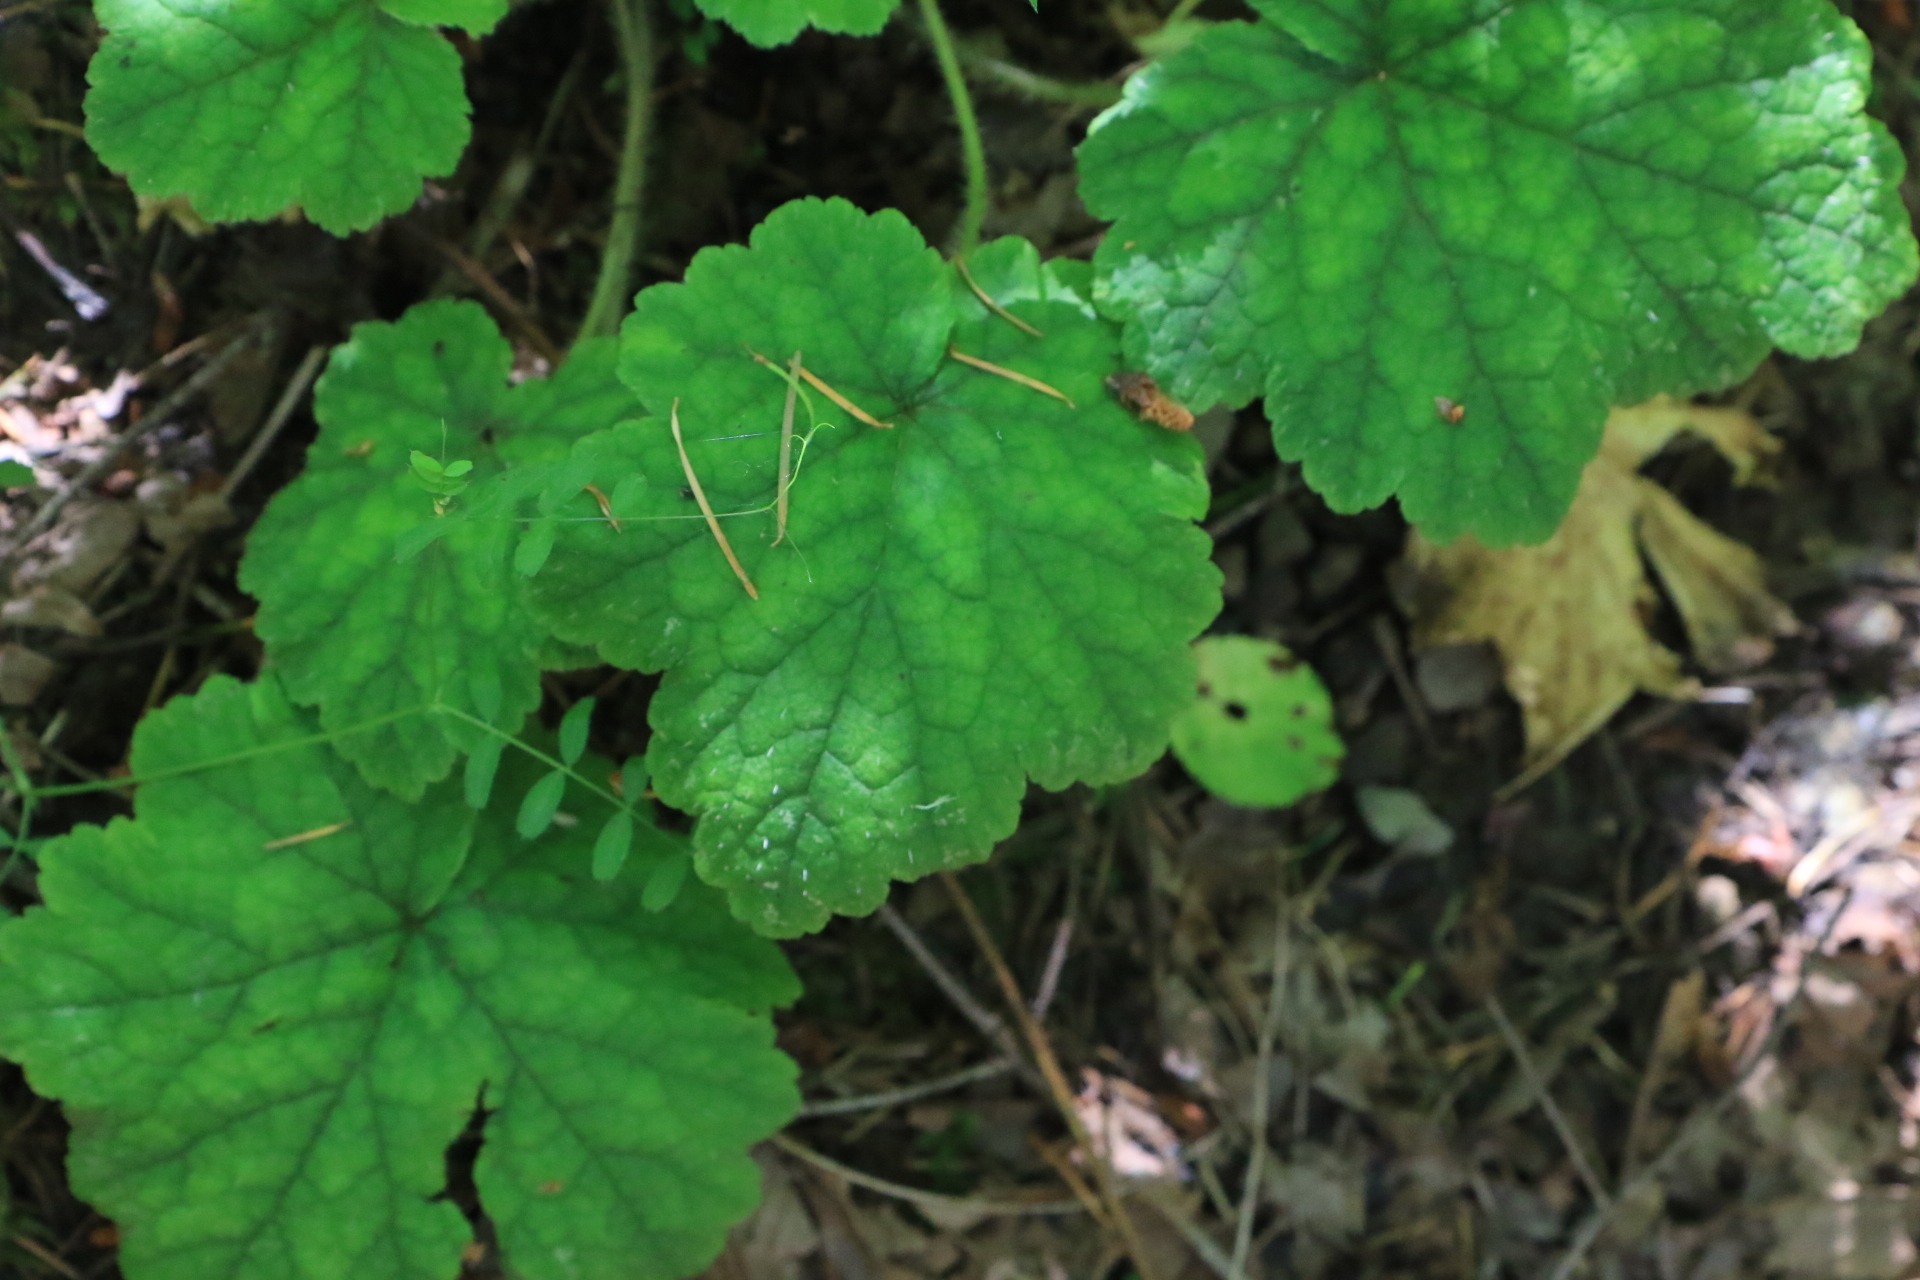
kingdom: Plantae
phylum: Tracheophyta
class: Magnoliopsida
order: Saxifragales
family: Saxifragaceae
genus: Tellima
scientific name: Tellima grandiflora
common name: Fringecups
